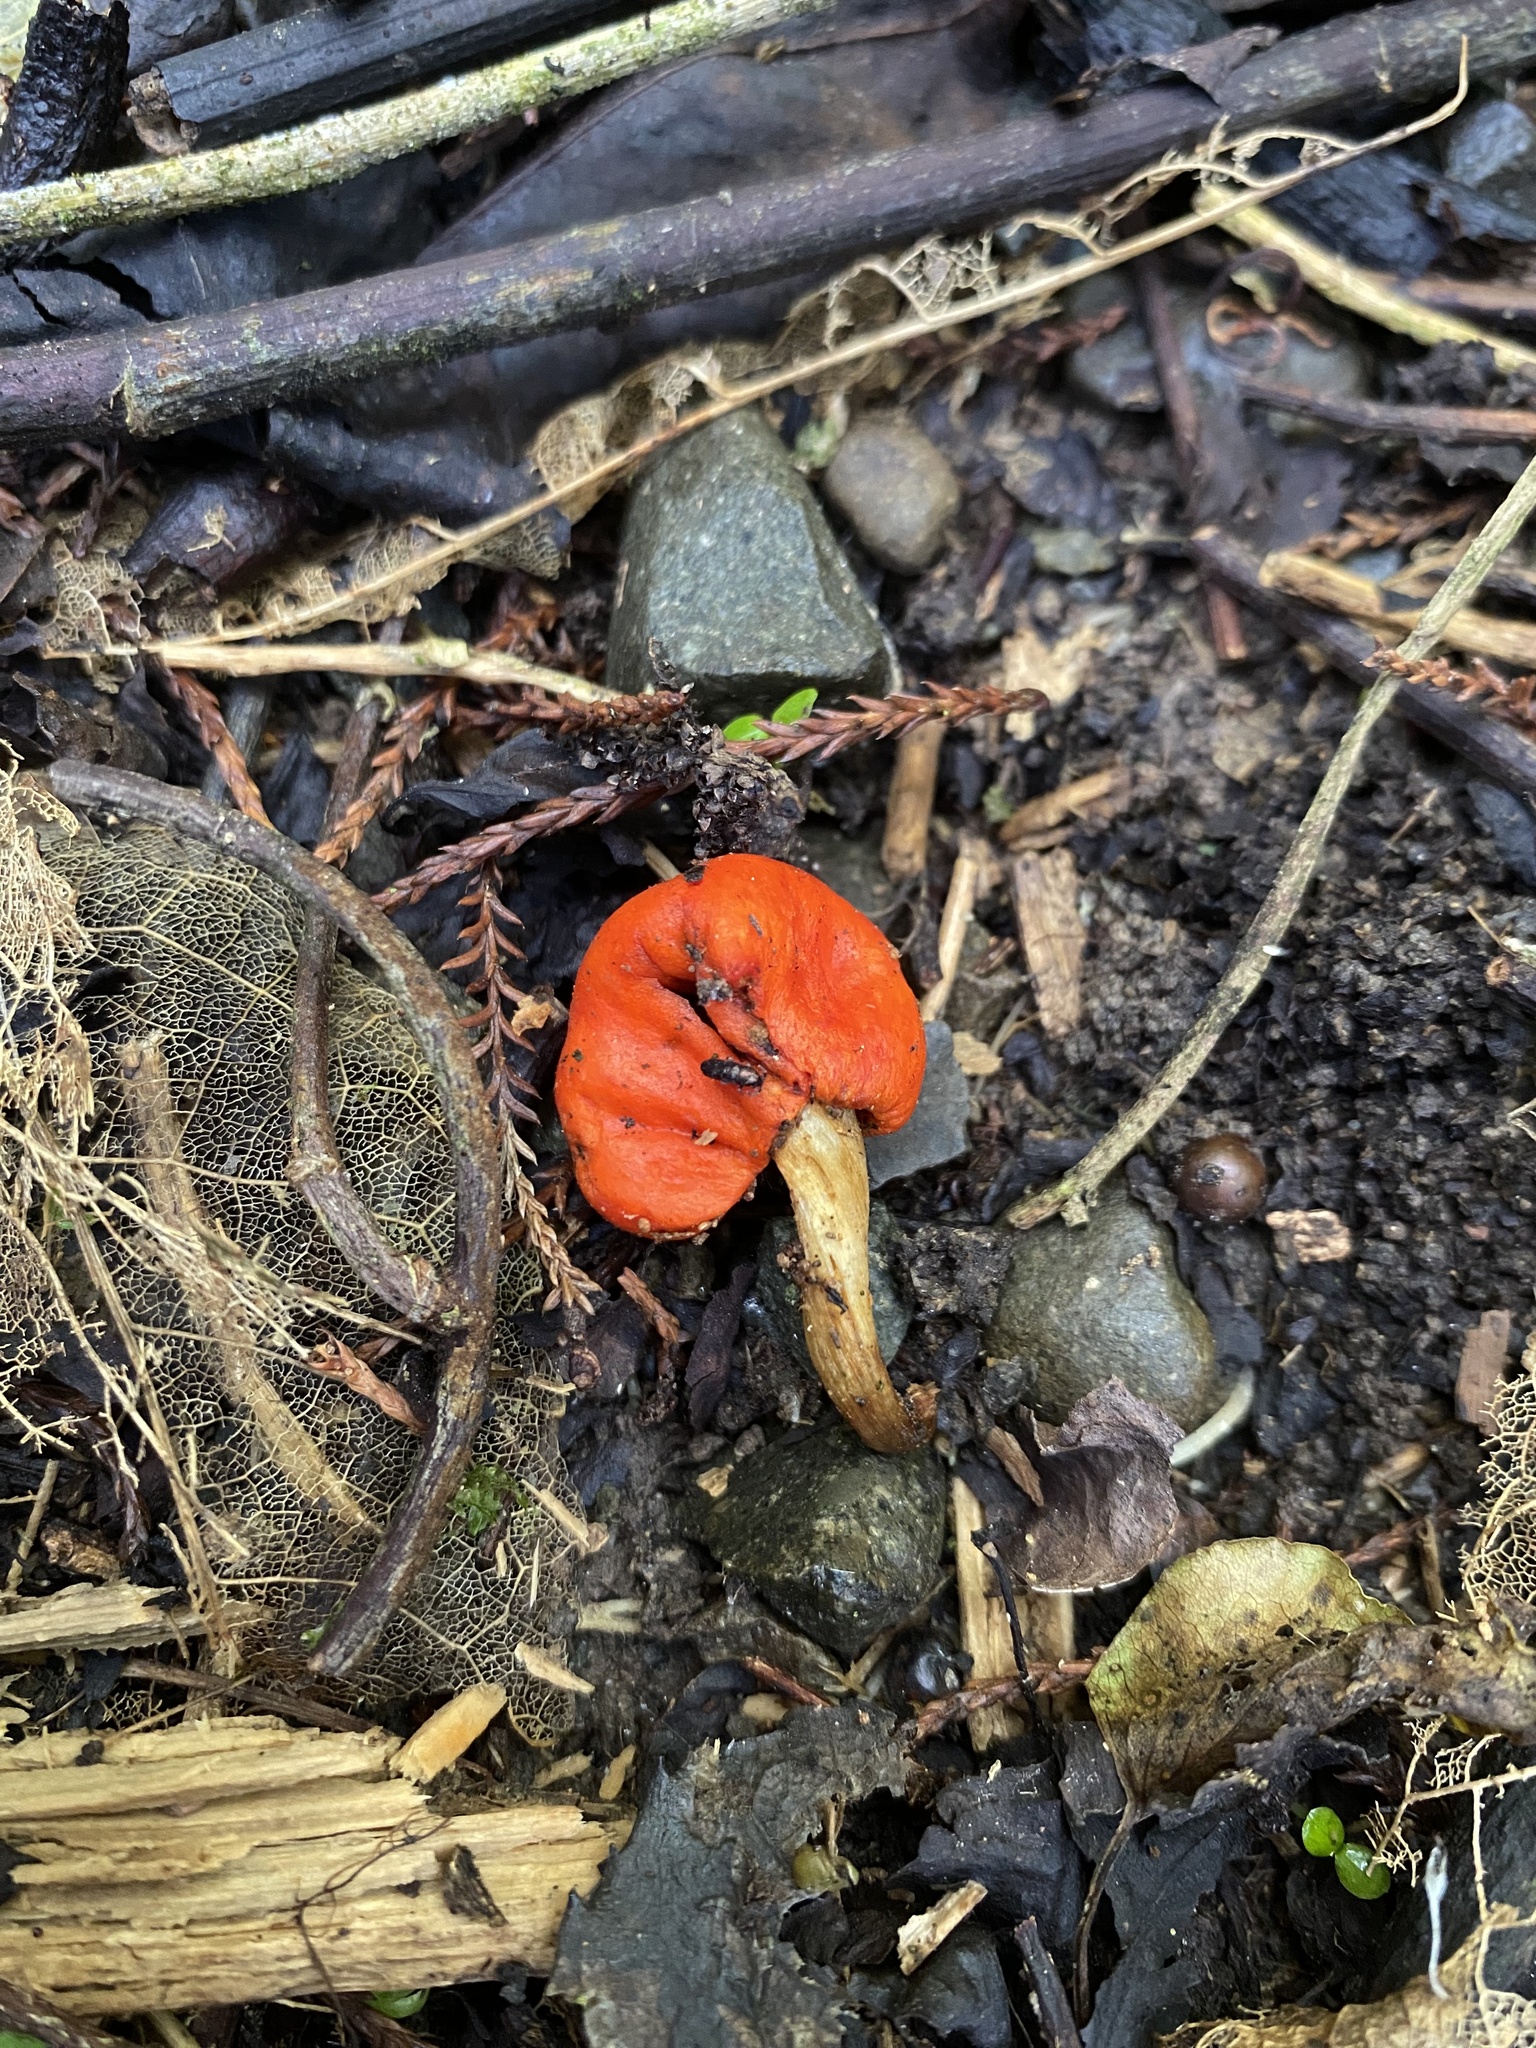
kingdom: Fungi
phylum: Basidiomycota
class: Agaricomycetes
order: Agaricales
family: Strophariaceae
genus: Leratiomyces
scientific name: Leratiomyces erythrocephalus
